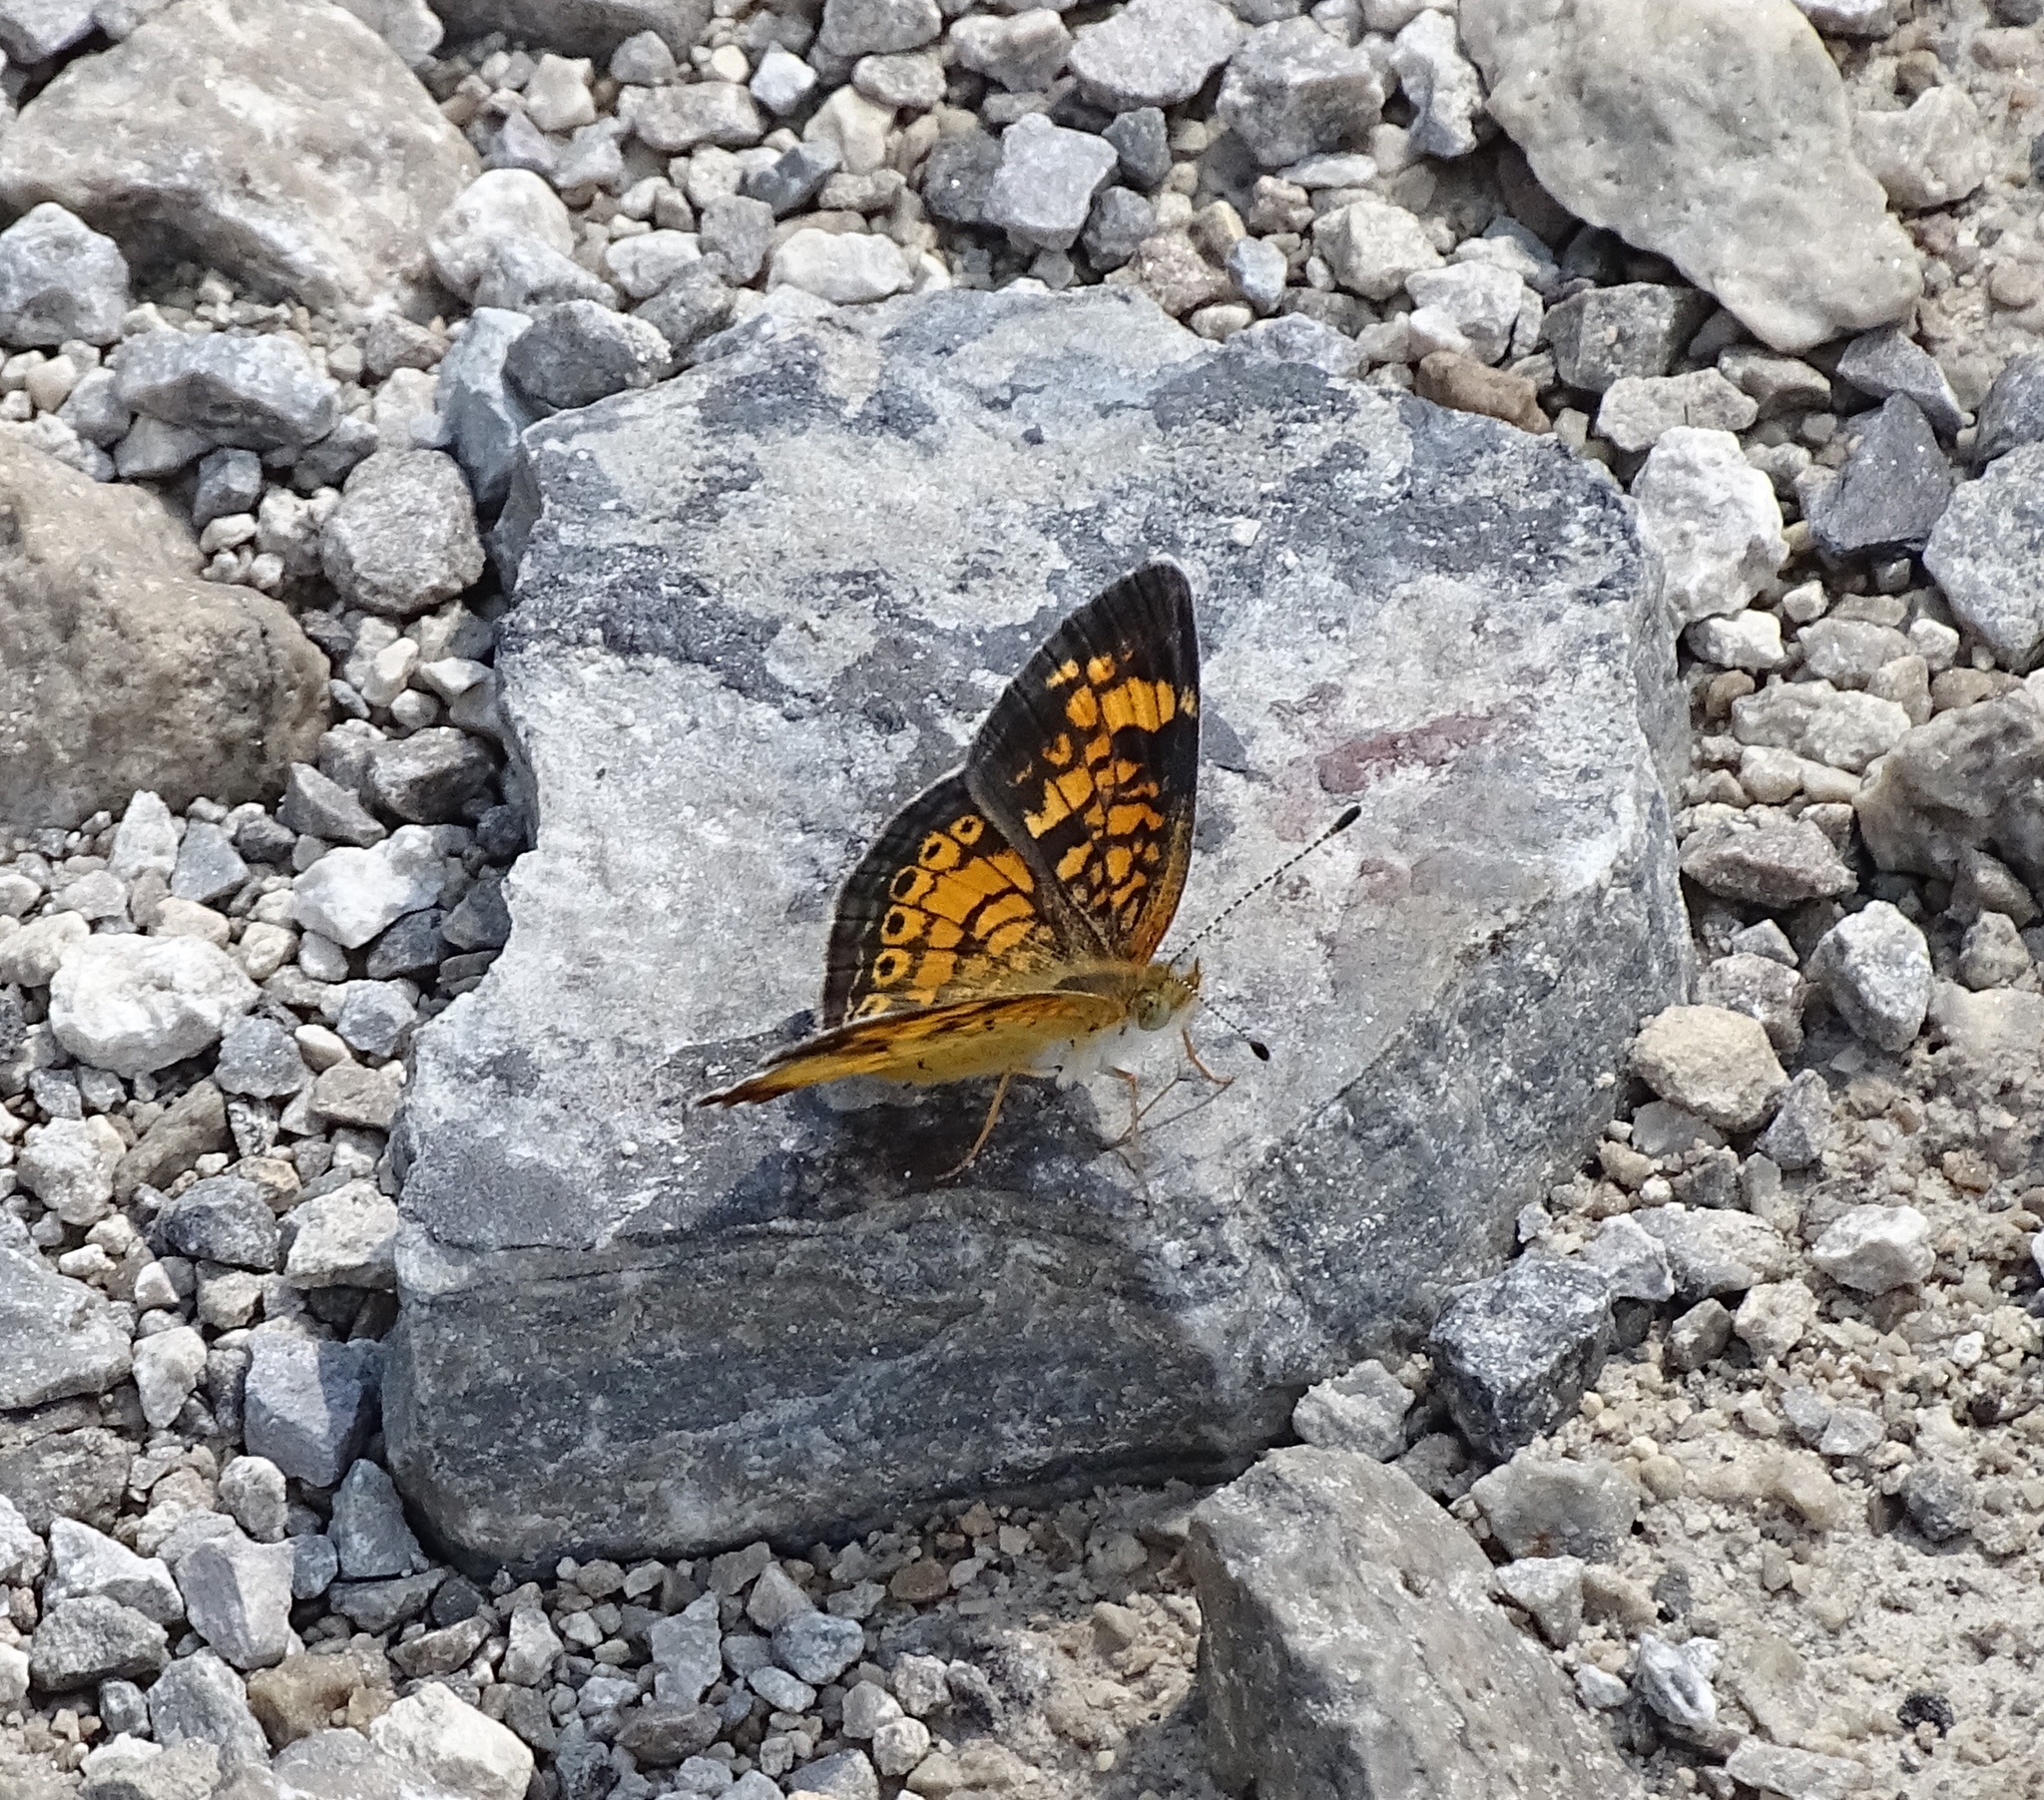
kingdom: Animalia
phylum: Arthropoda
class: Insecta
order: Lepidoptera
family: Nymphalidae
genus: Phyciodes
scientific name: Phyciodes tharos
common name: Pearl crescent
